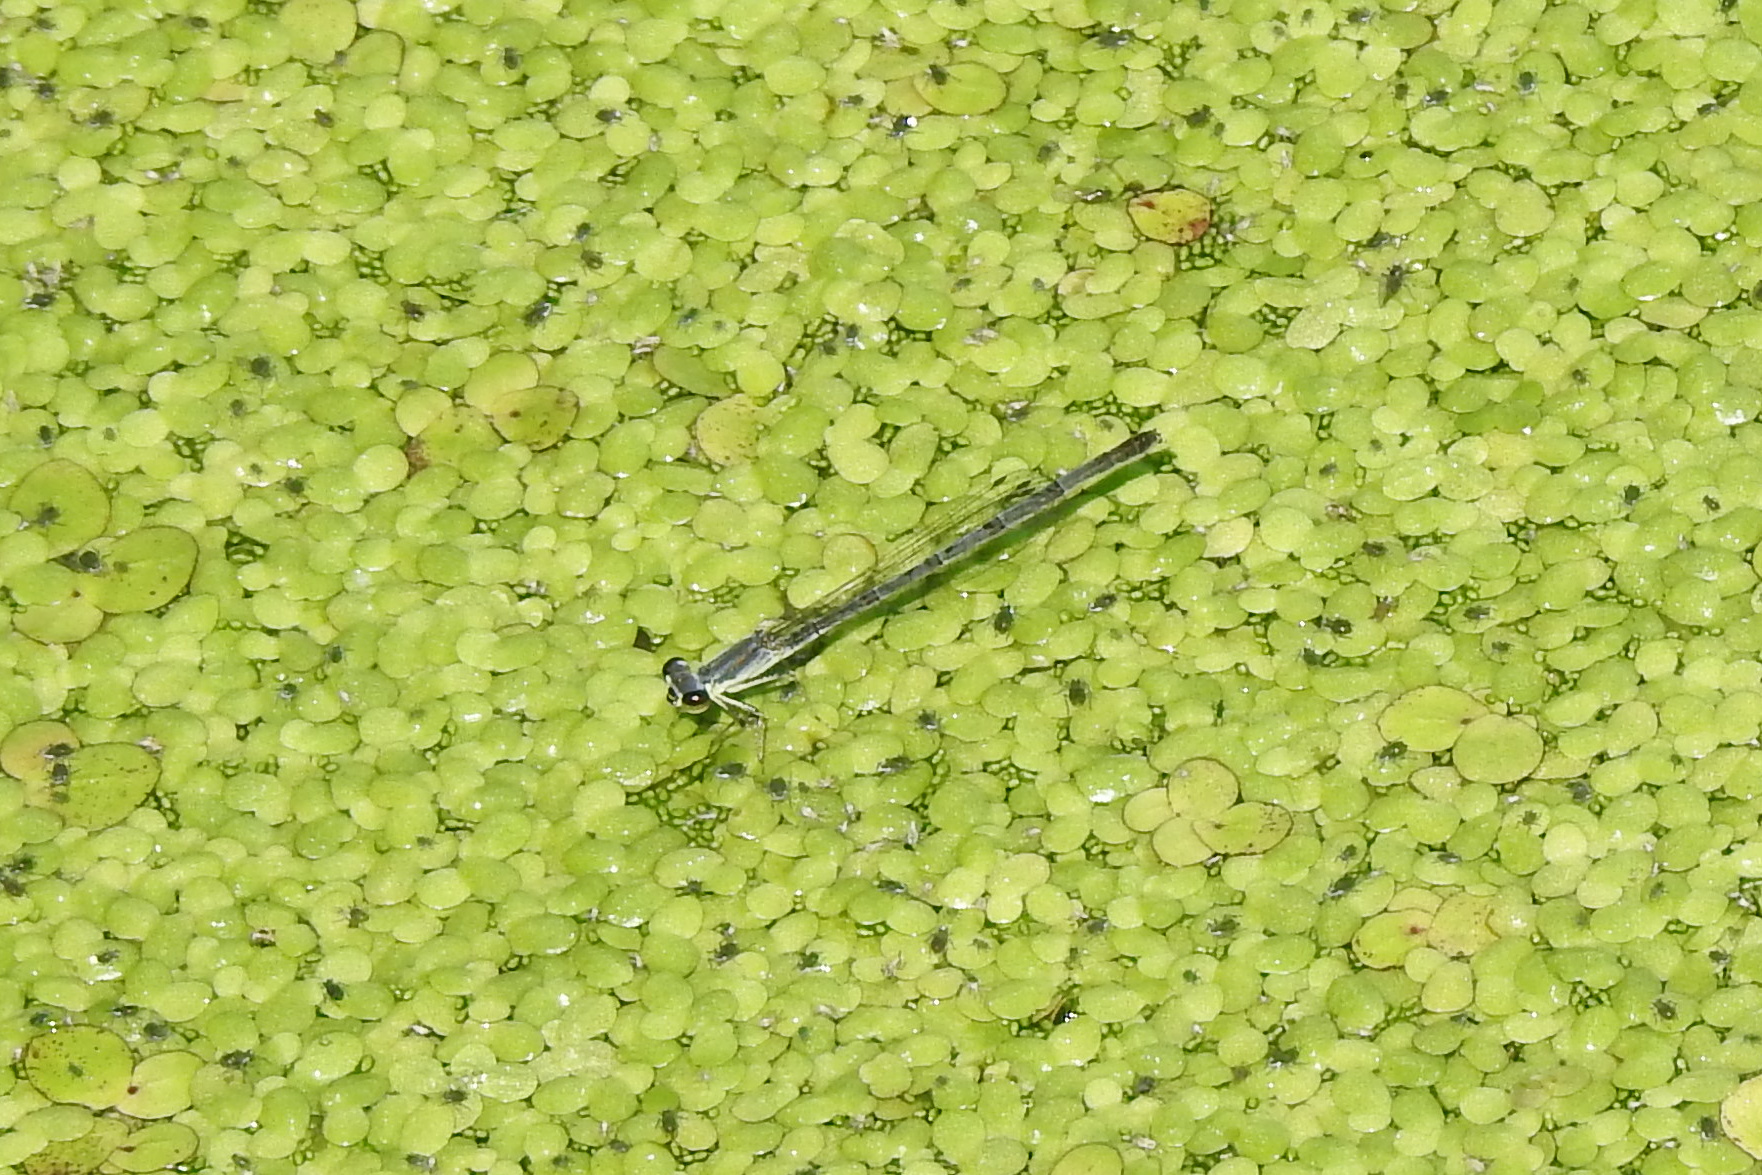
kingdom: Animalia
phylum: Arthropoda
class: Insecta
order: Odonata
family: Coenagrionidae
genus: Ischnura
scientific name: Ischnura posita
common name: Fragile forktail
